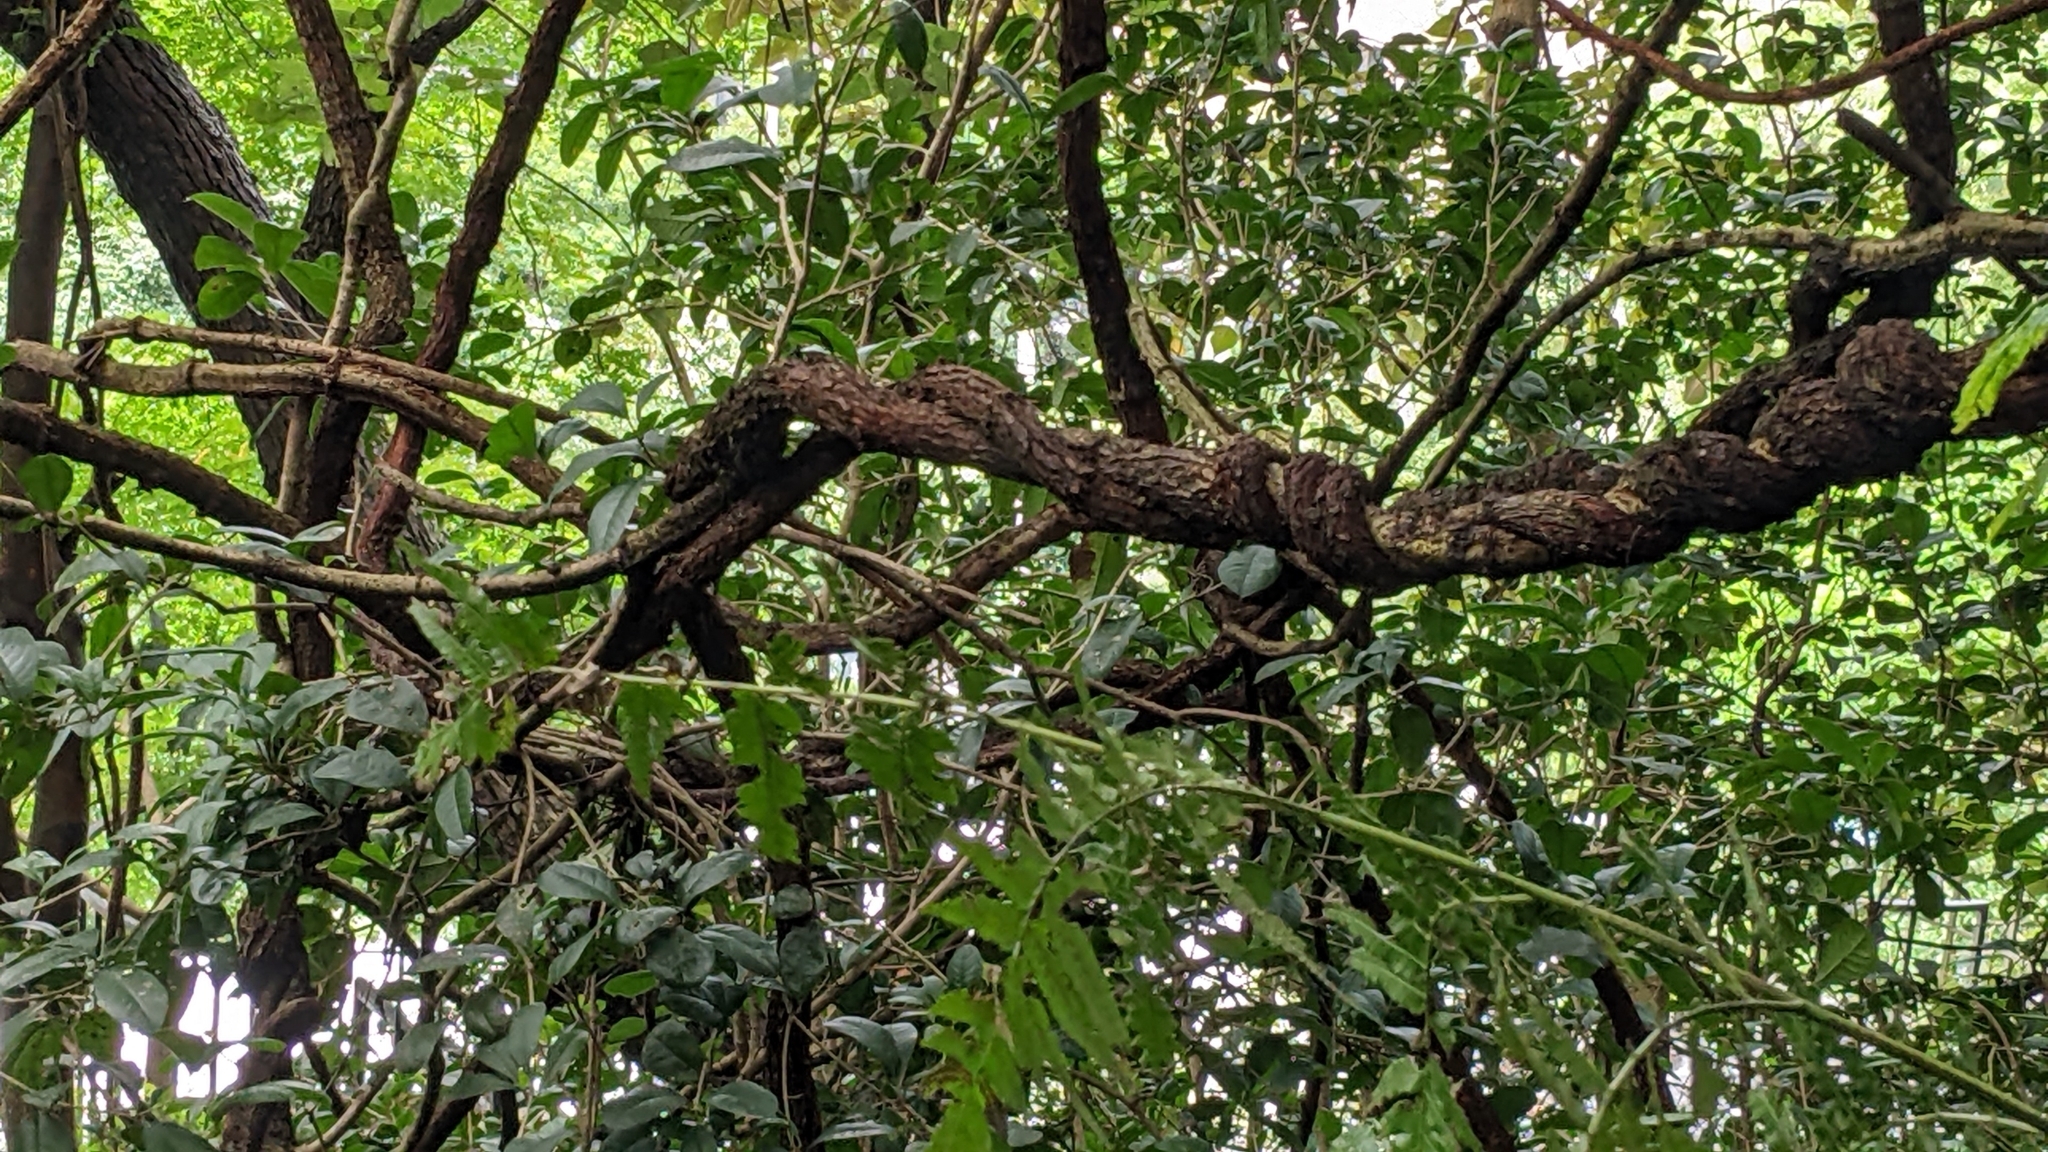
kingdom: Plantae
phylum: Tracheophyta
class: Magnoliopsida
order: Gentianales
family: Apocynaceae
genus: Urceola
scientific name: Urceola rosea
